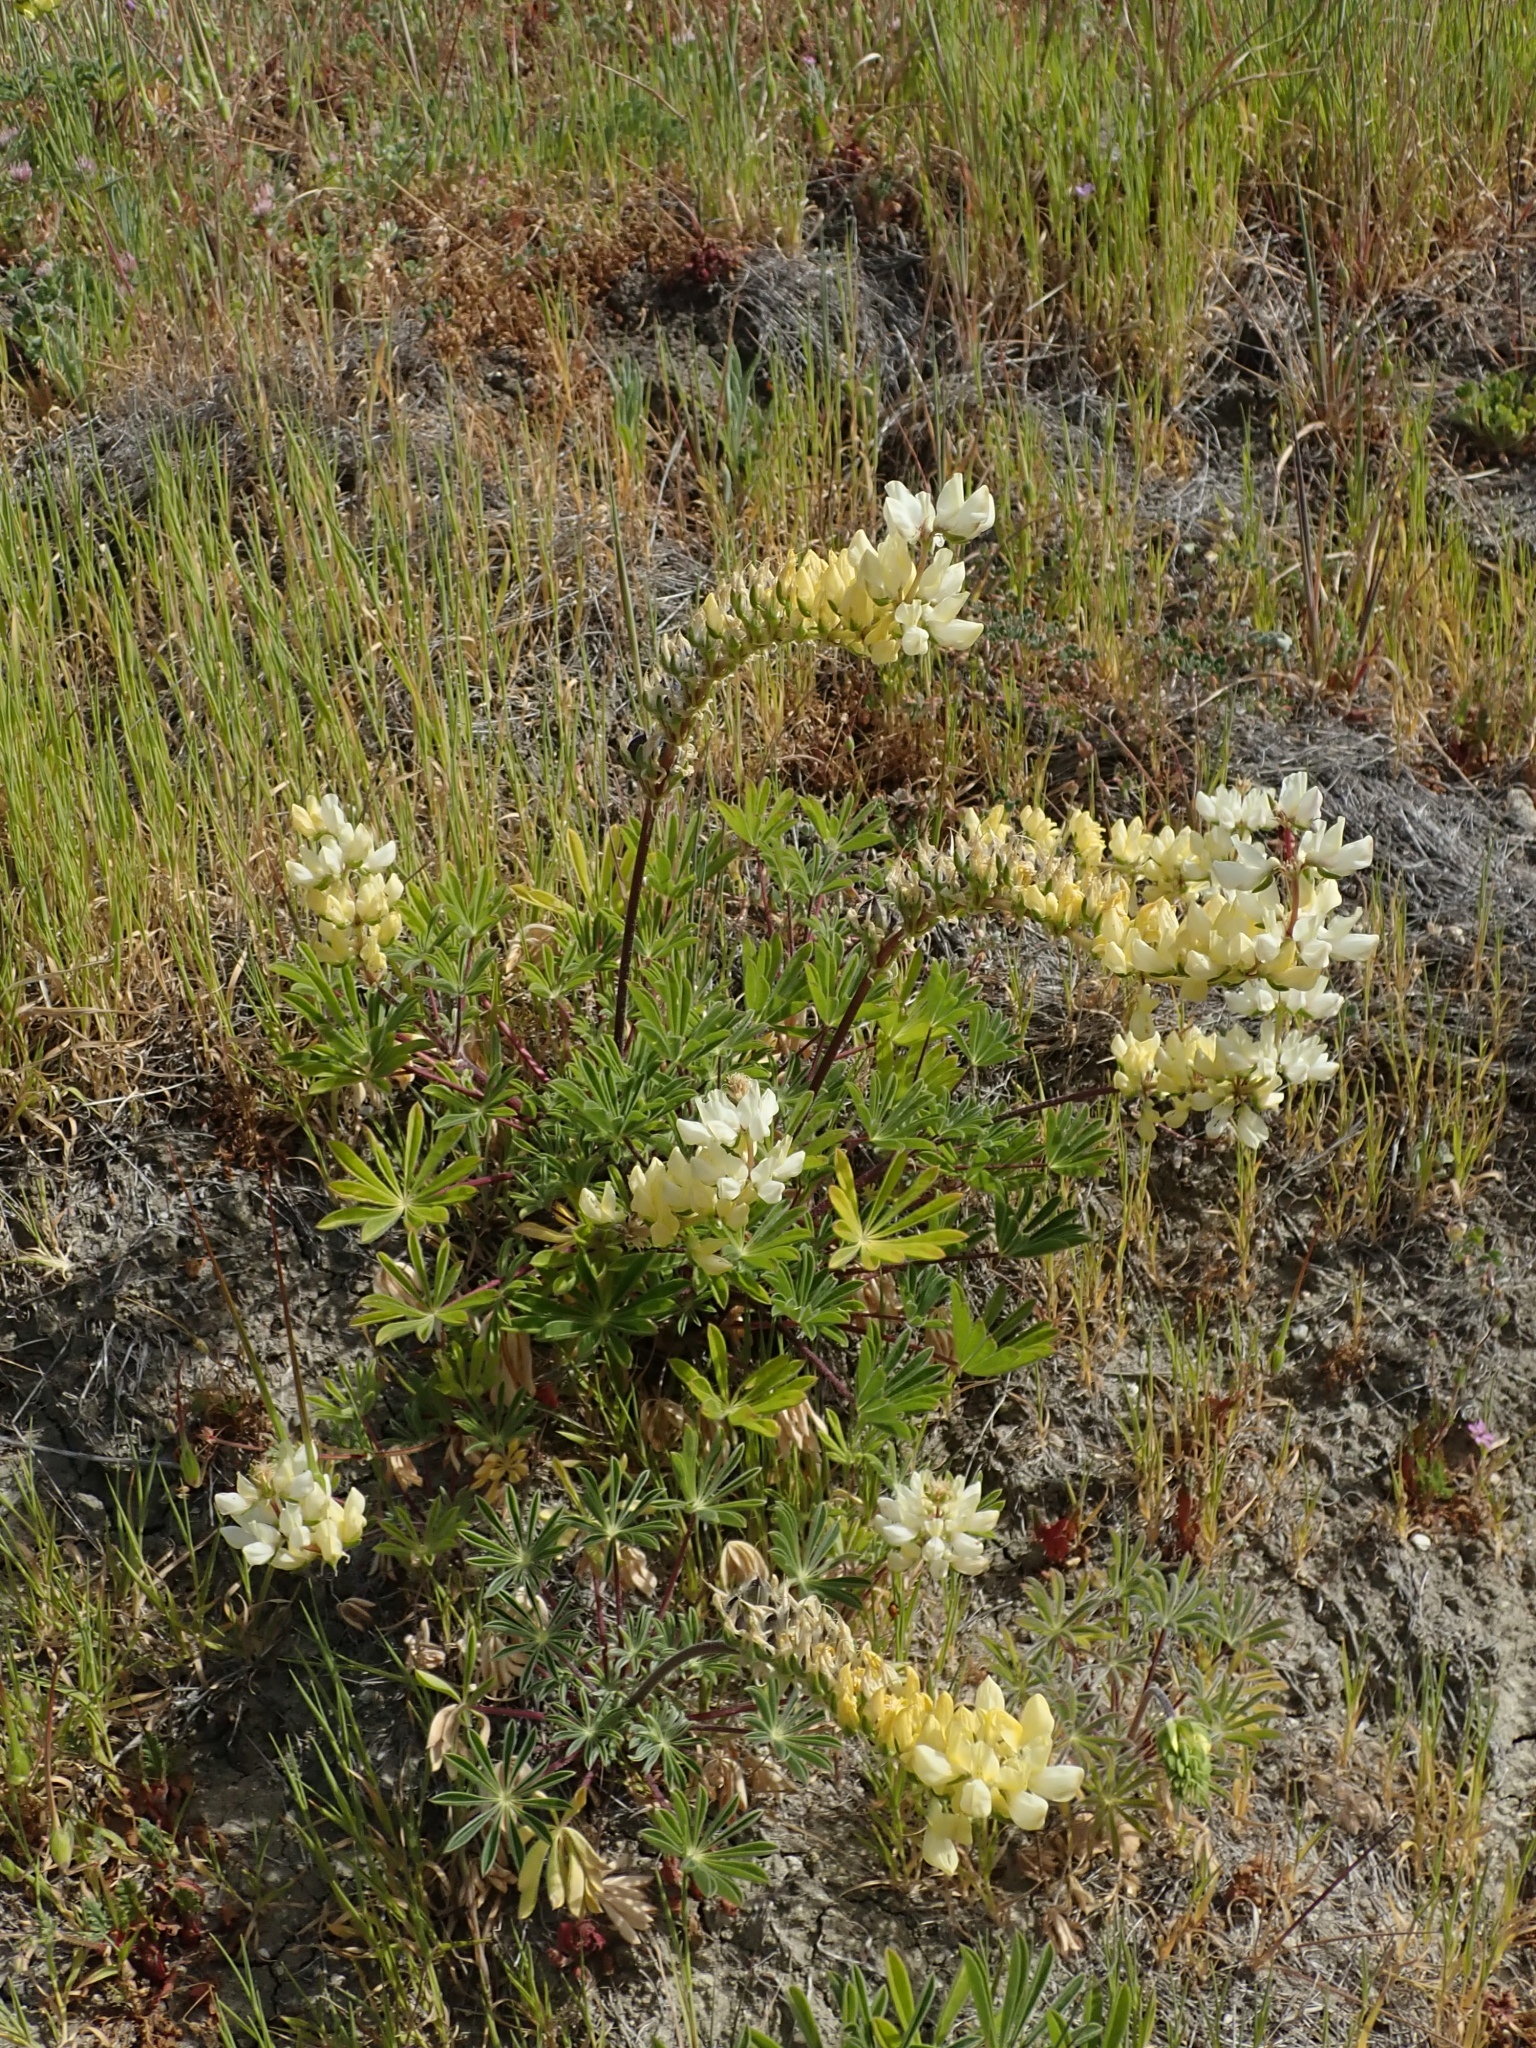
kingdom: Plantae
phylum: Tracheophyta
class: Magnoliopsida
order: Fabales
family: Fabaceae
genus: Lupinus
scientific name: Lupinus microcarpus
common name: Chick lupine
